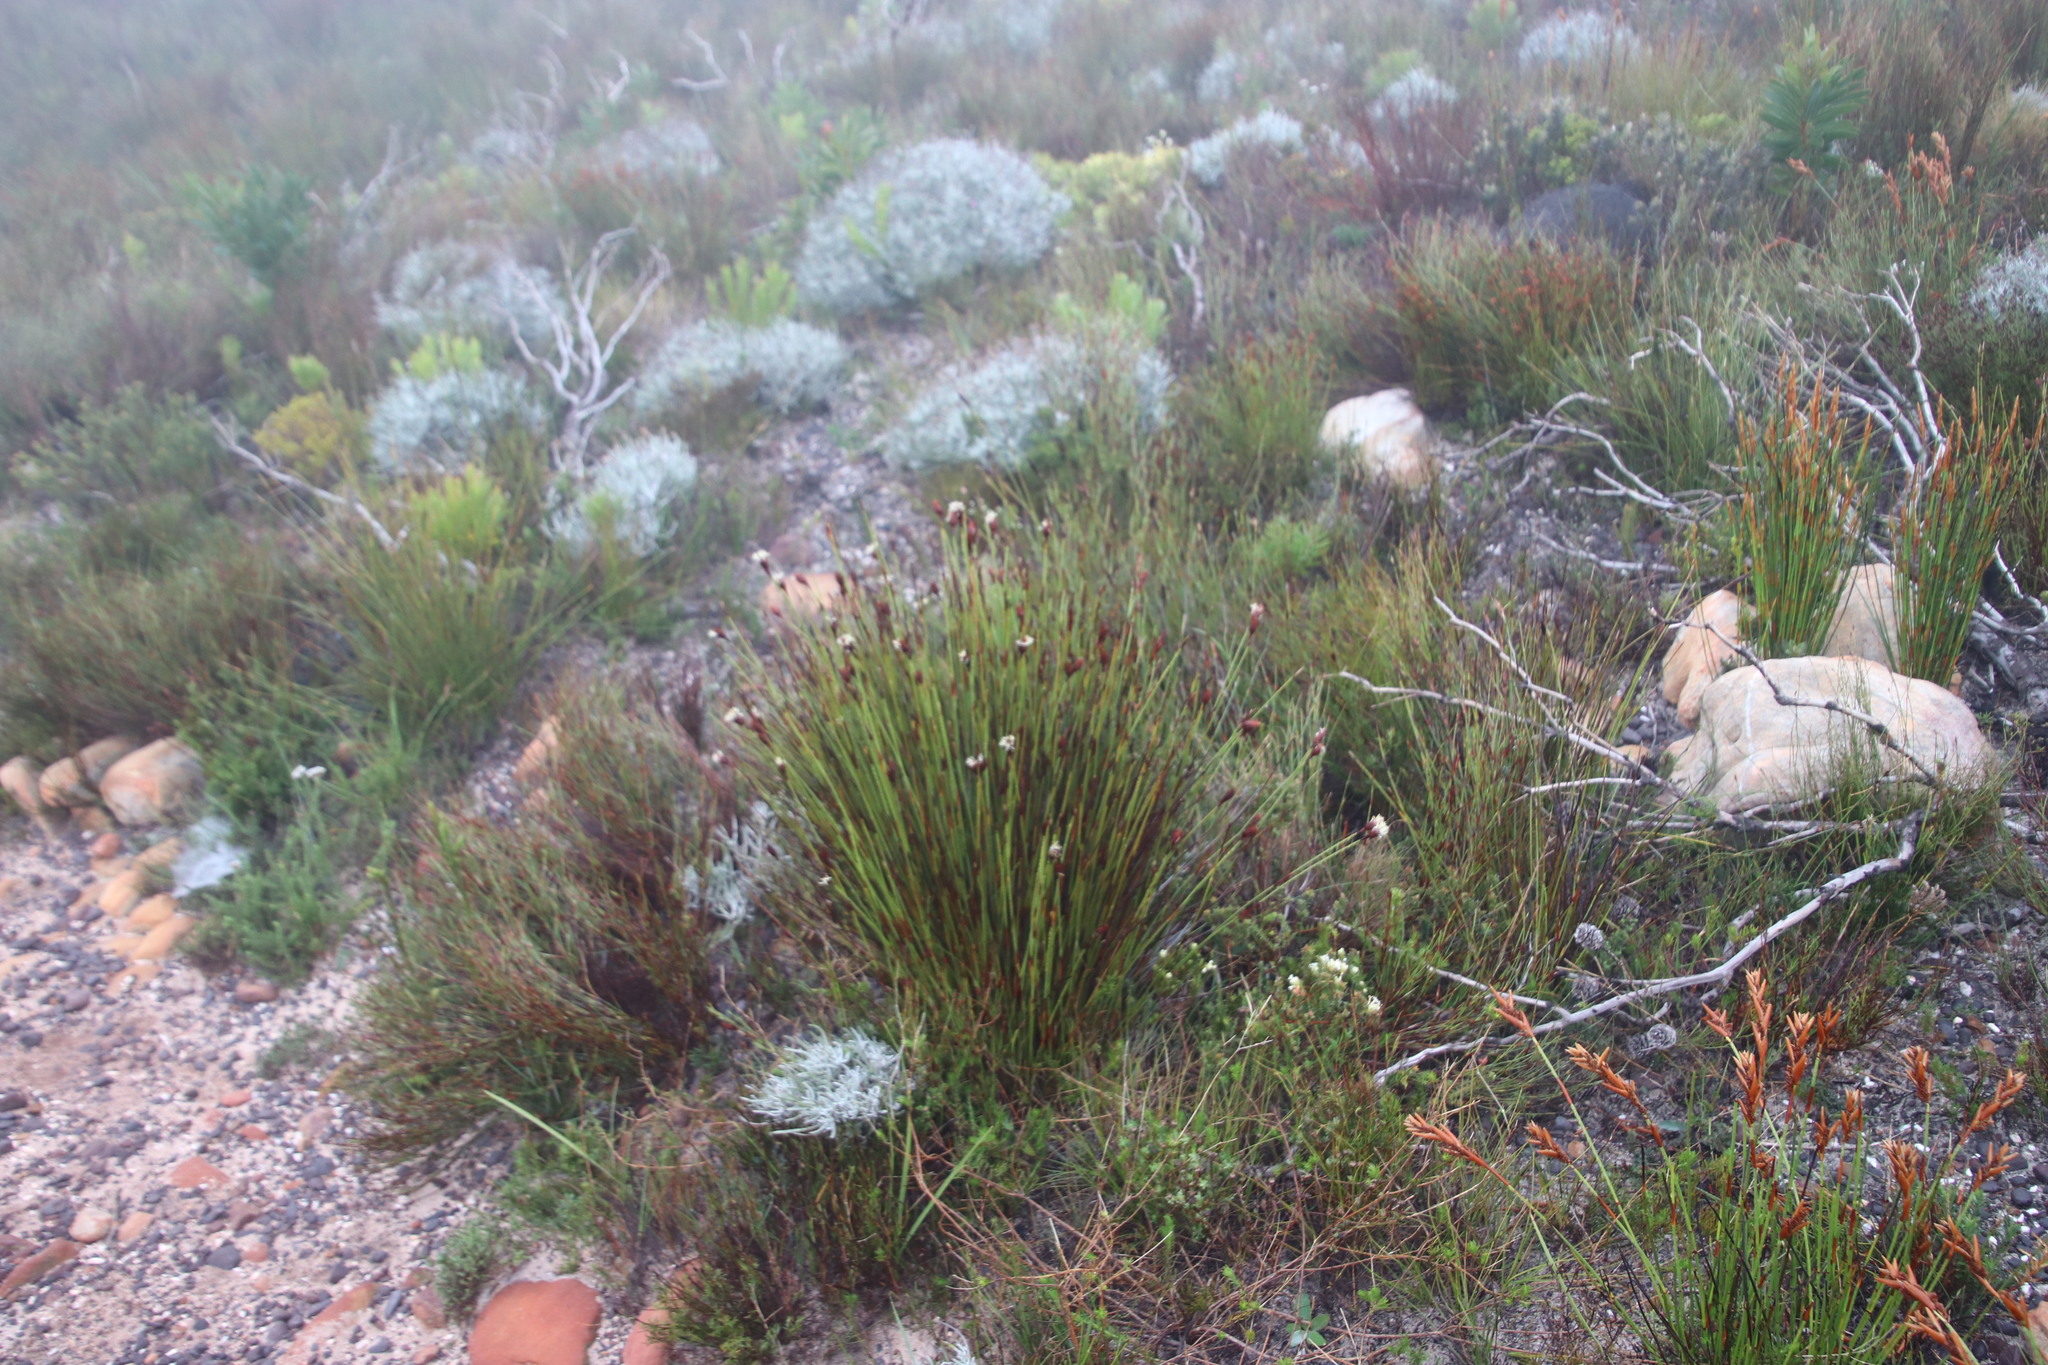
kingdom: Plantae
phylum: Tracheophyta
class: Liliopsida
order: Poales
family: Restionaceae
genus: Hypodiscus
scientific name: Hypodiscus aristatus
